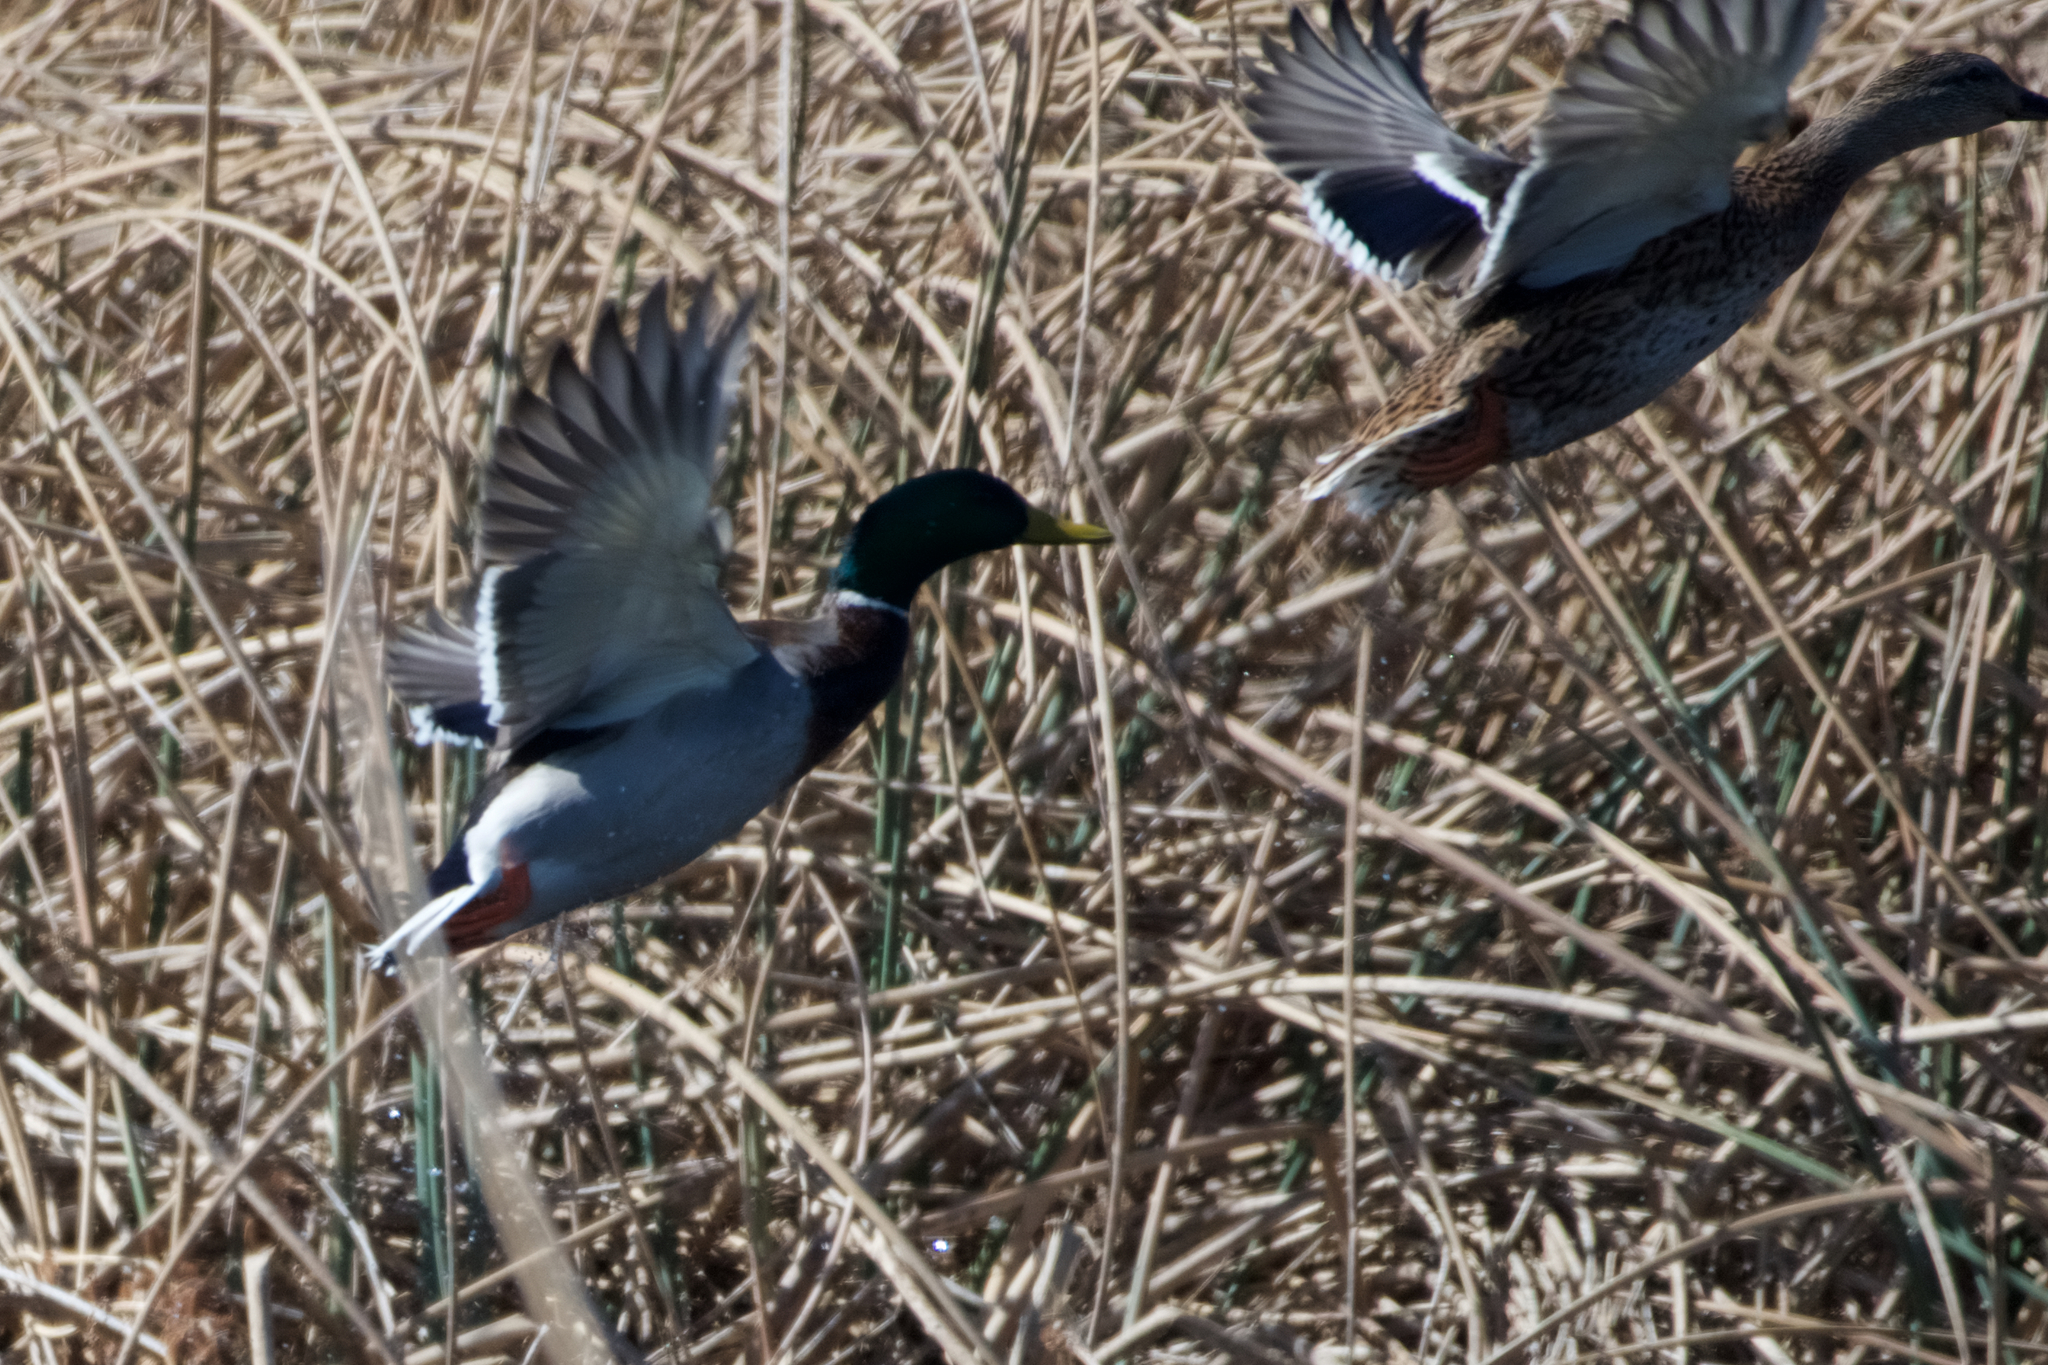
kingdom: Animalia
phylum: Chordata
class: Aves
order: Anseriformes
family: Anatidae
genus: Anas
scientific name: Anas platyrhynchos
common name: Mallard
